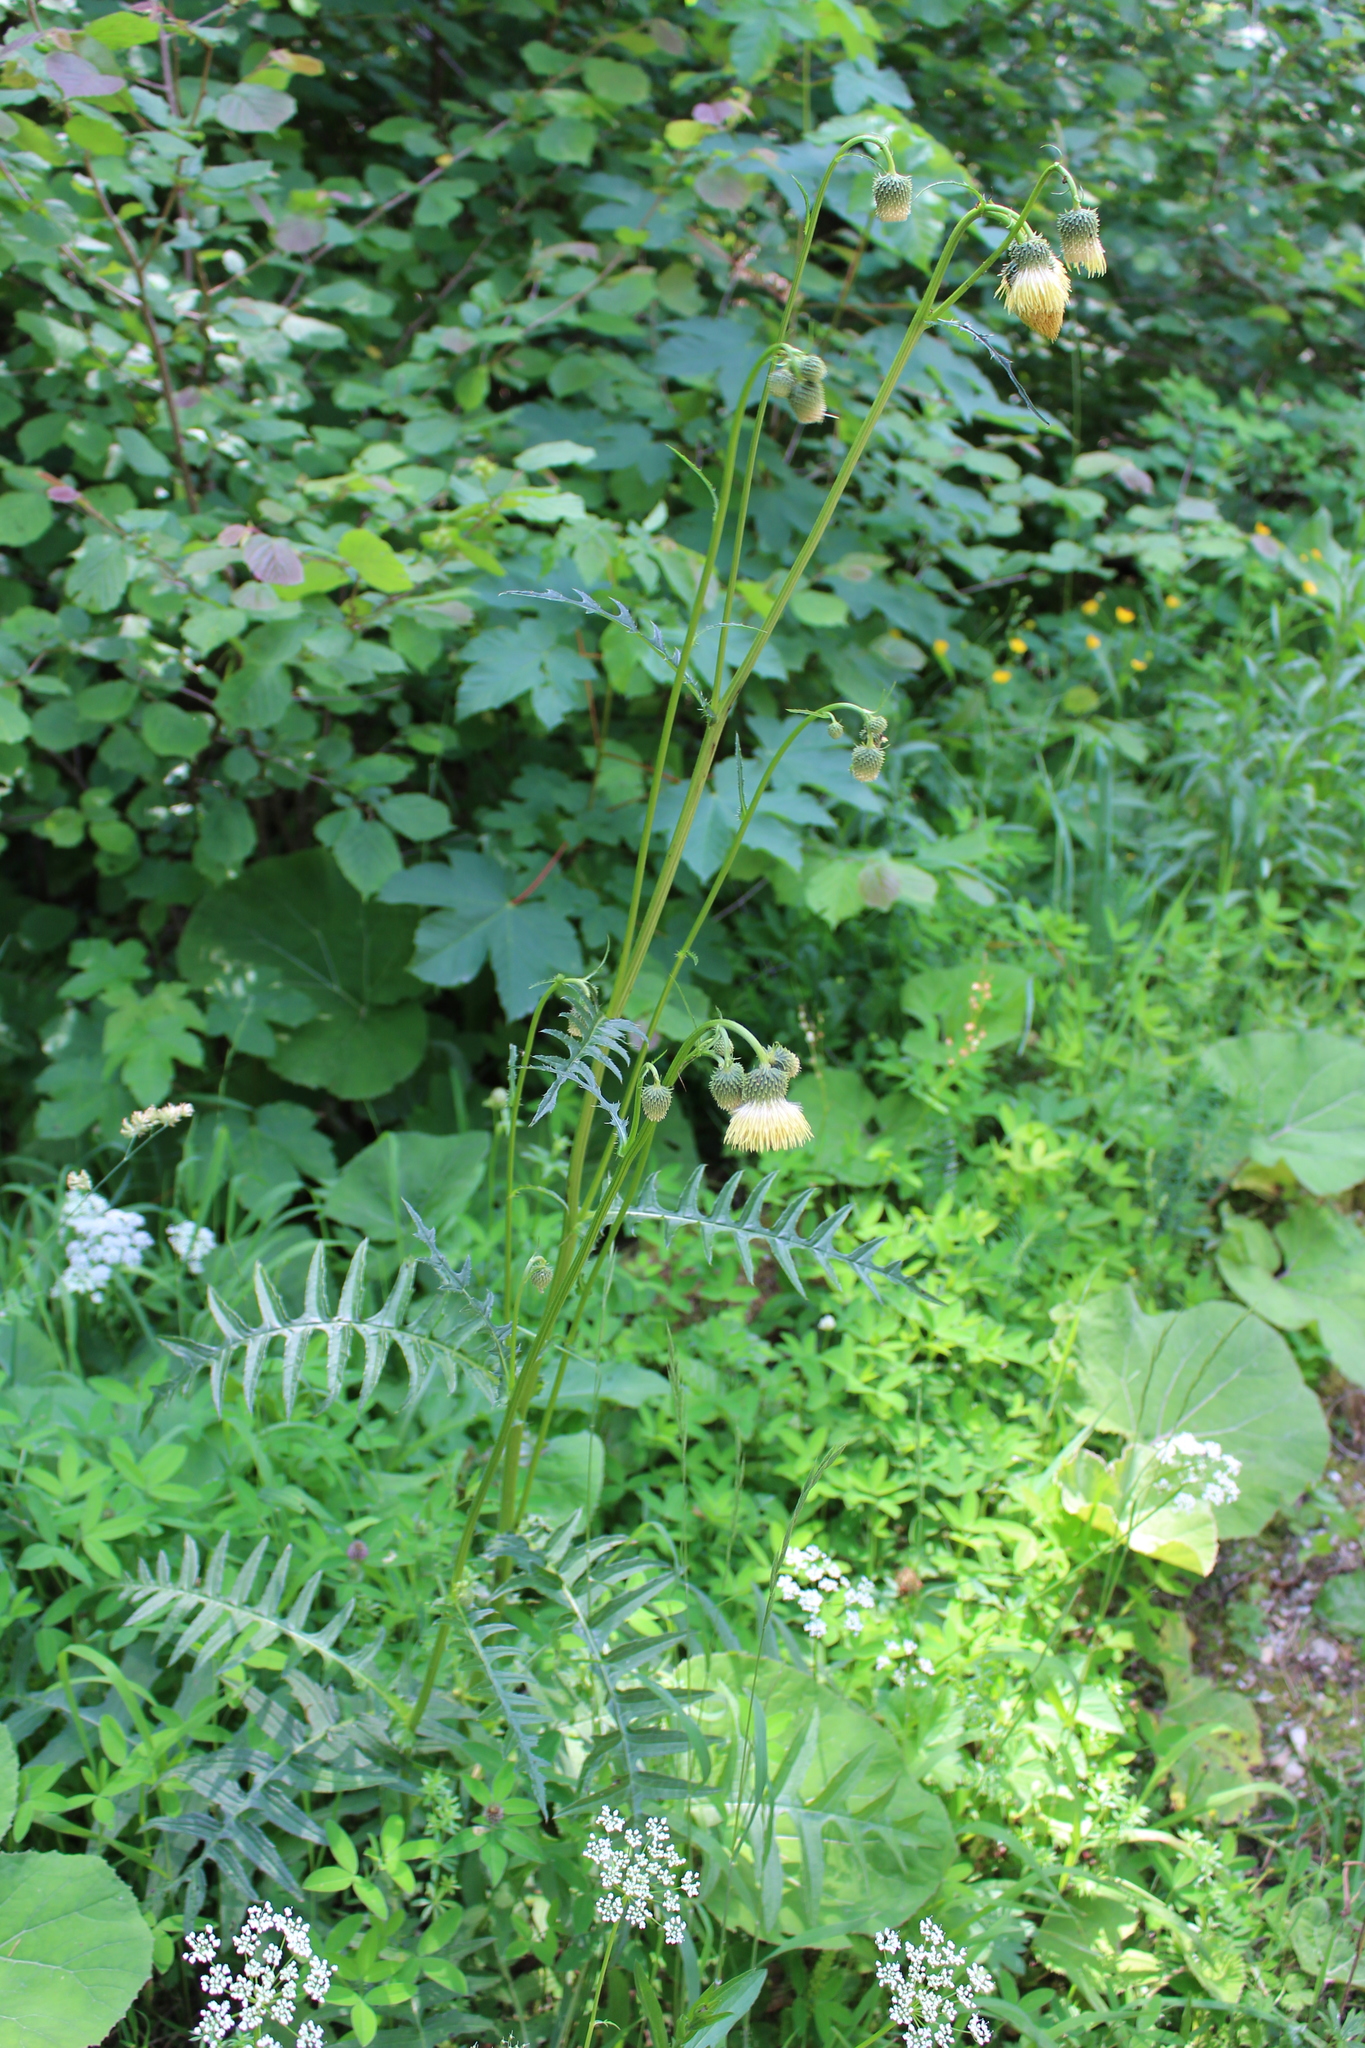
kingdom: Plantae
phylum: Tracheophyta
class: Magnoliopsida
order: Asterales
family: Asteraceae
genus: Cirsium
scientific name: Cirsium erisithales
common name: Yellow thistle
